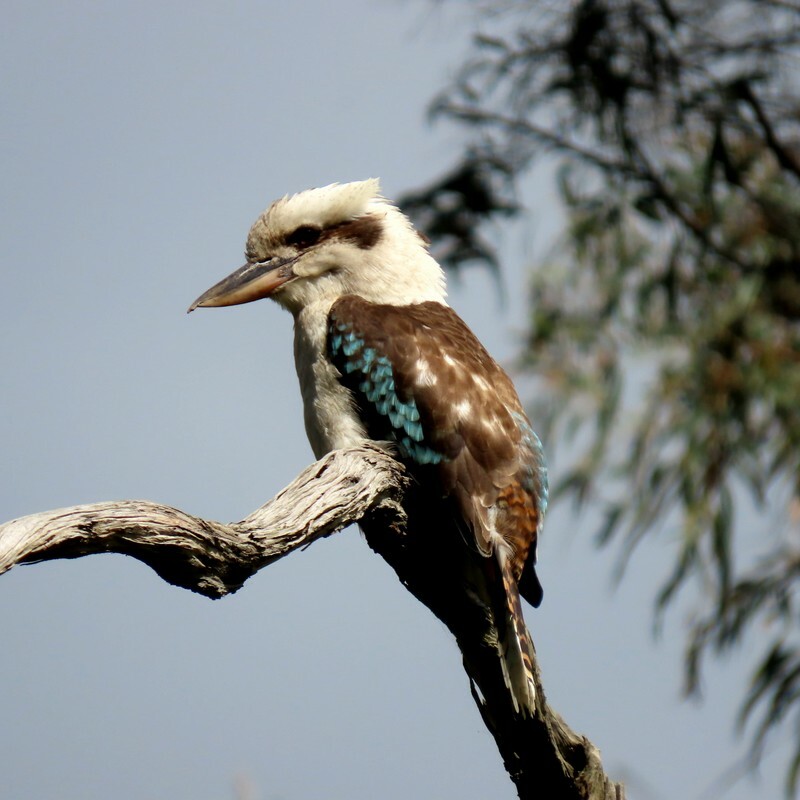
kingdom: Animalia
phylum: Chordata
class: Aves
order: Coraciiformes
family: Alcedinidae
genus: Dacelo
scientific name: Dacelo novaeguineae
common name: Laughing kookaburra
